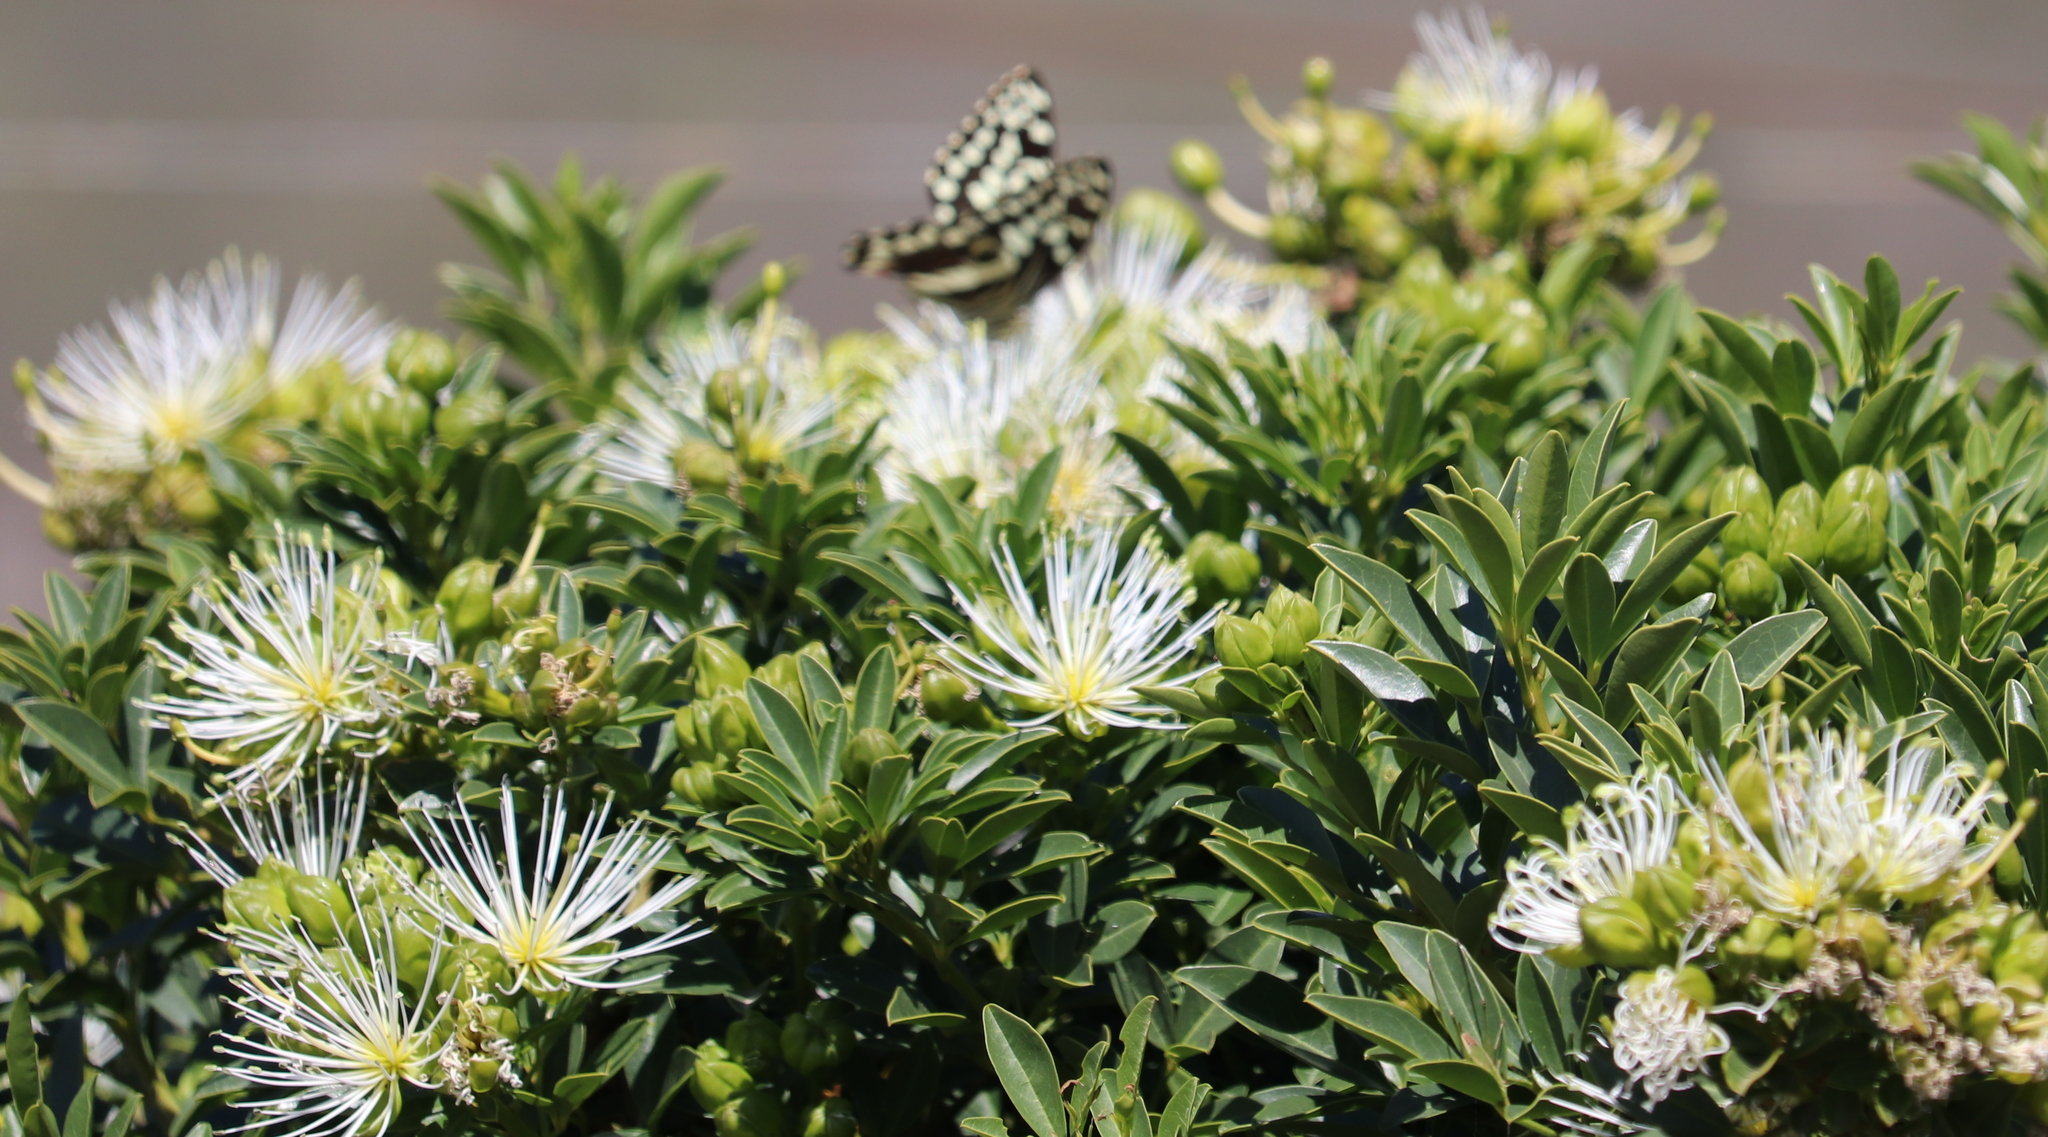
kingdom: Plantae
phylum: Tracheophyta
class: Magnoliopsida
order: Brassicales
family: Capparaceae
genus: Maerua
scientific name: Maerua cafra
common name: Bush maerua
